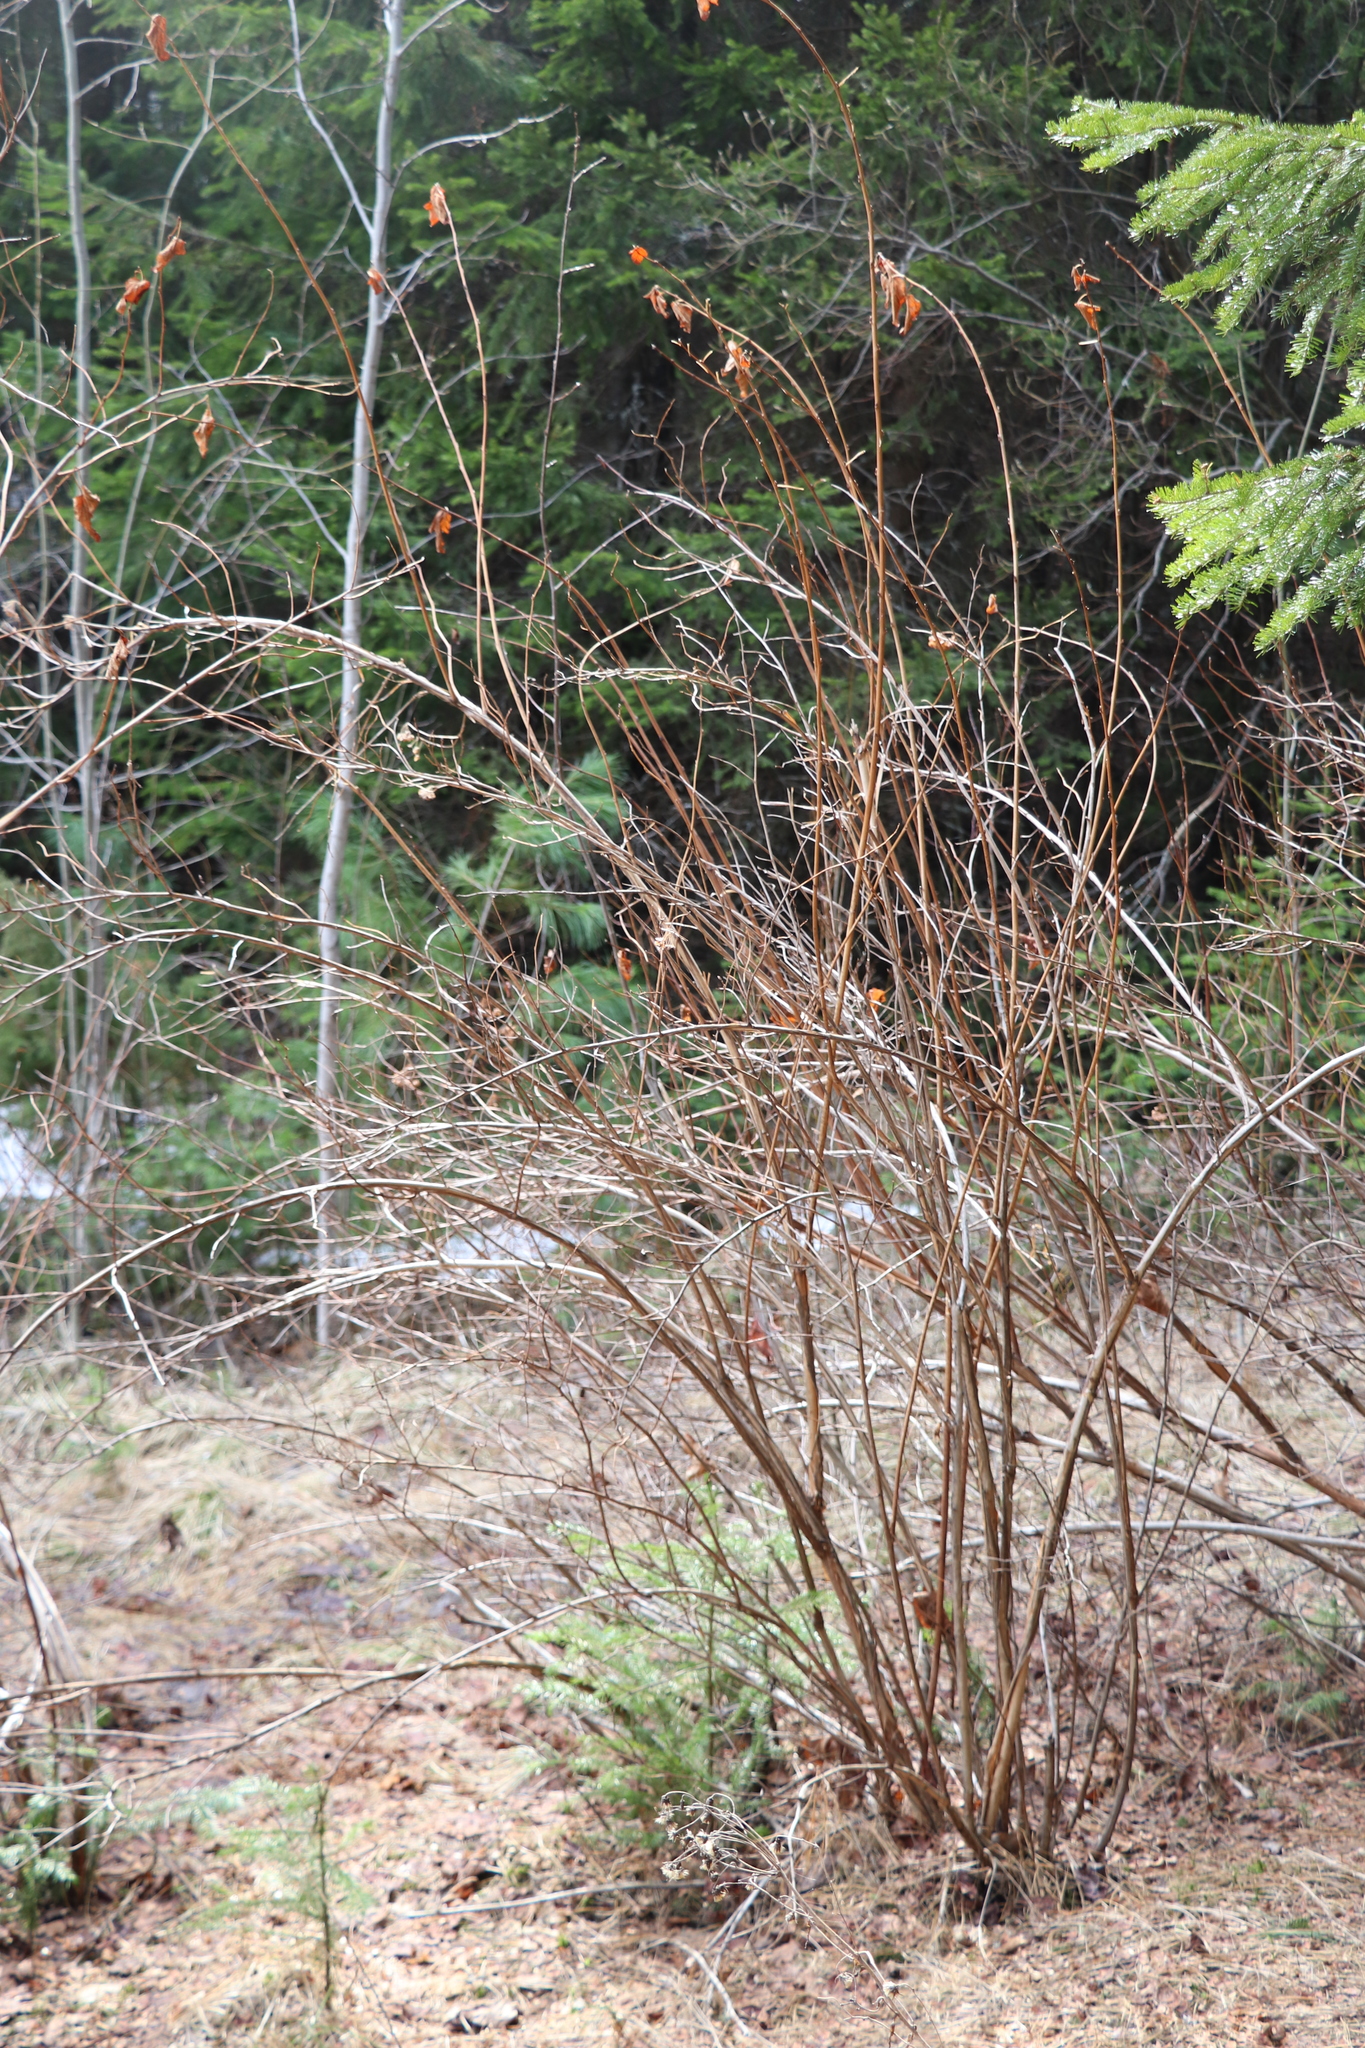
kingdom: Plantae
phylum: Tracheophyta
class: Magnoliopsida
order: Rosales
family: Rosaceae
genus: Physocarpus
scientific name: Physocarpus opulifolius
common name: Ninebark
